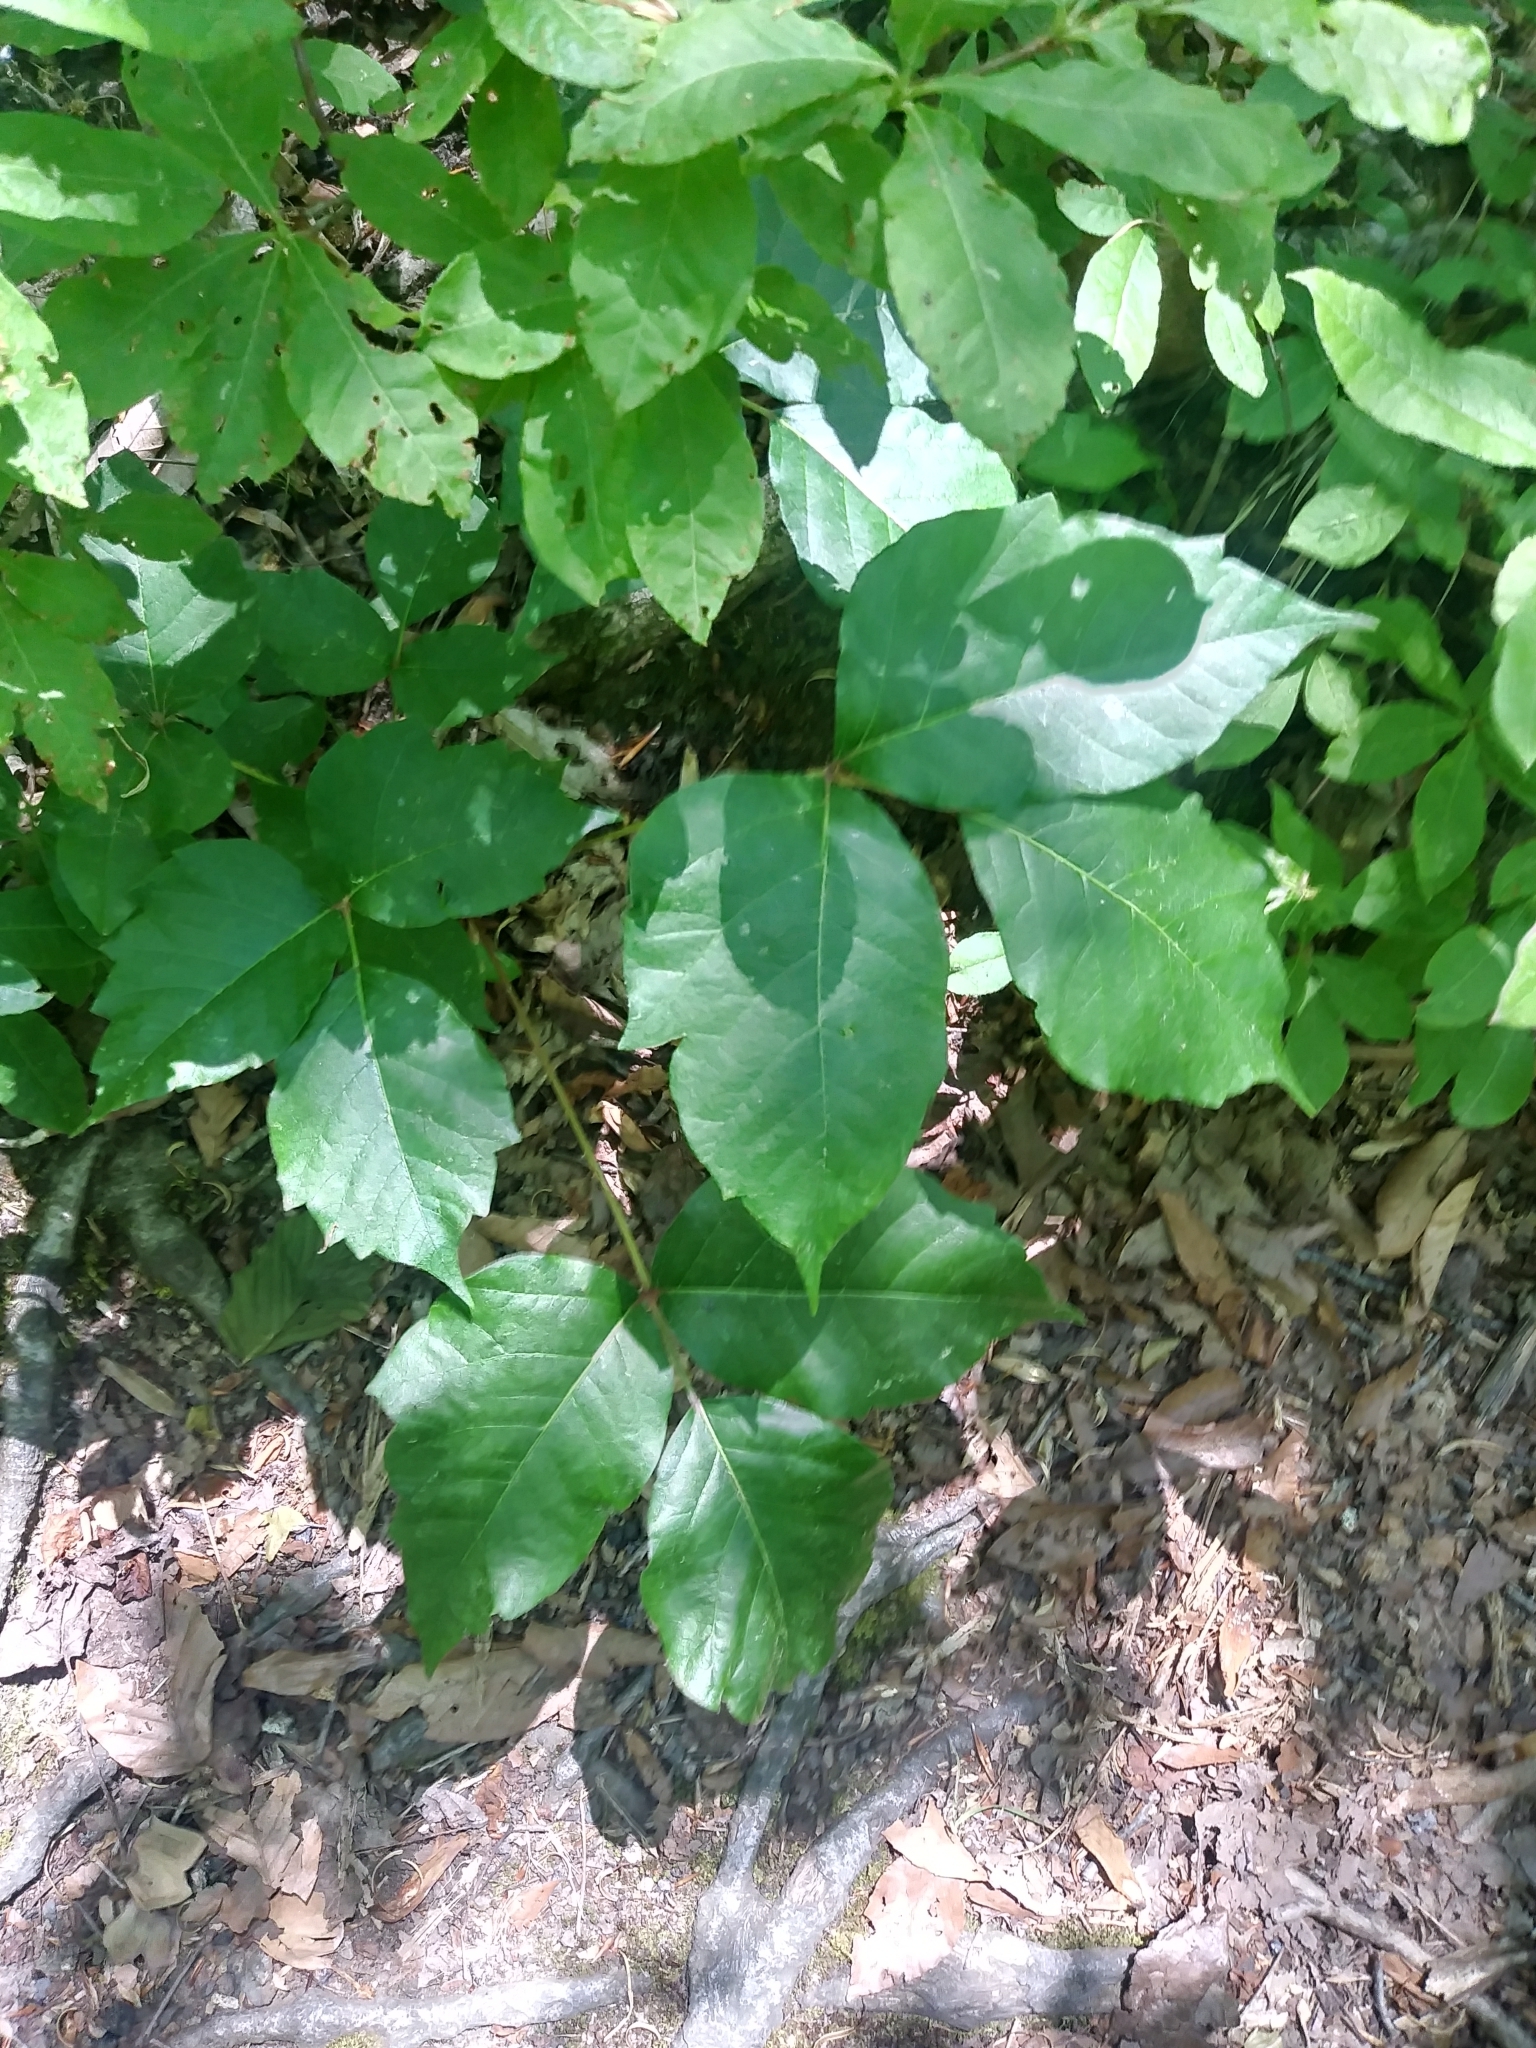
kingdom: Plantae
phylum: Tracheophyta
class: Magnoliopsida
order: Sapindales
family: Anacardiaceae
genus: Toxicodendron
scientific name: Toxicodendron radicans
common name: Poison ivy
